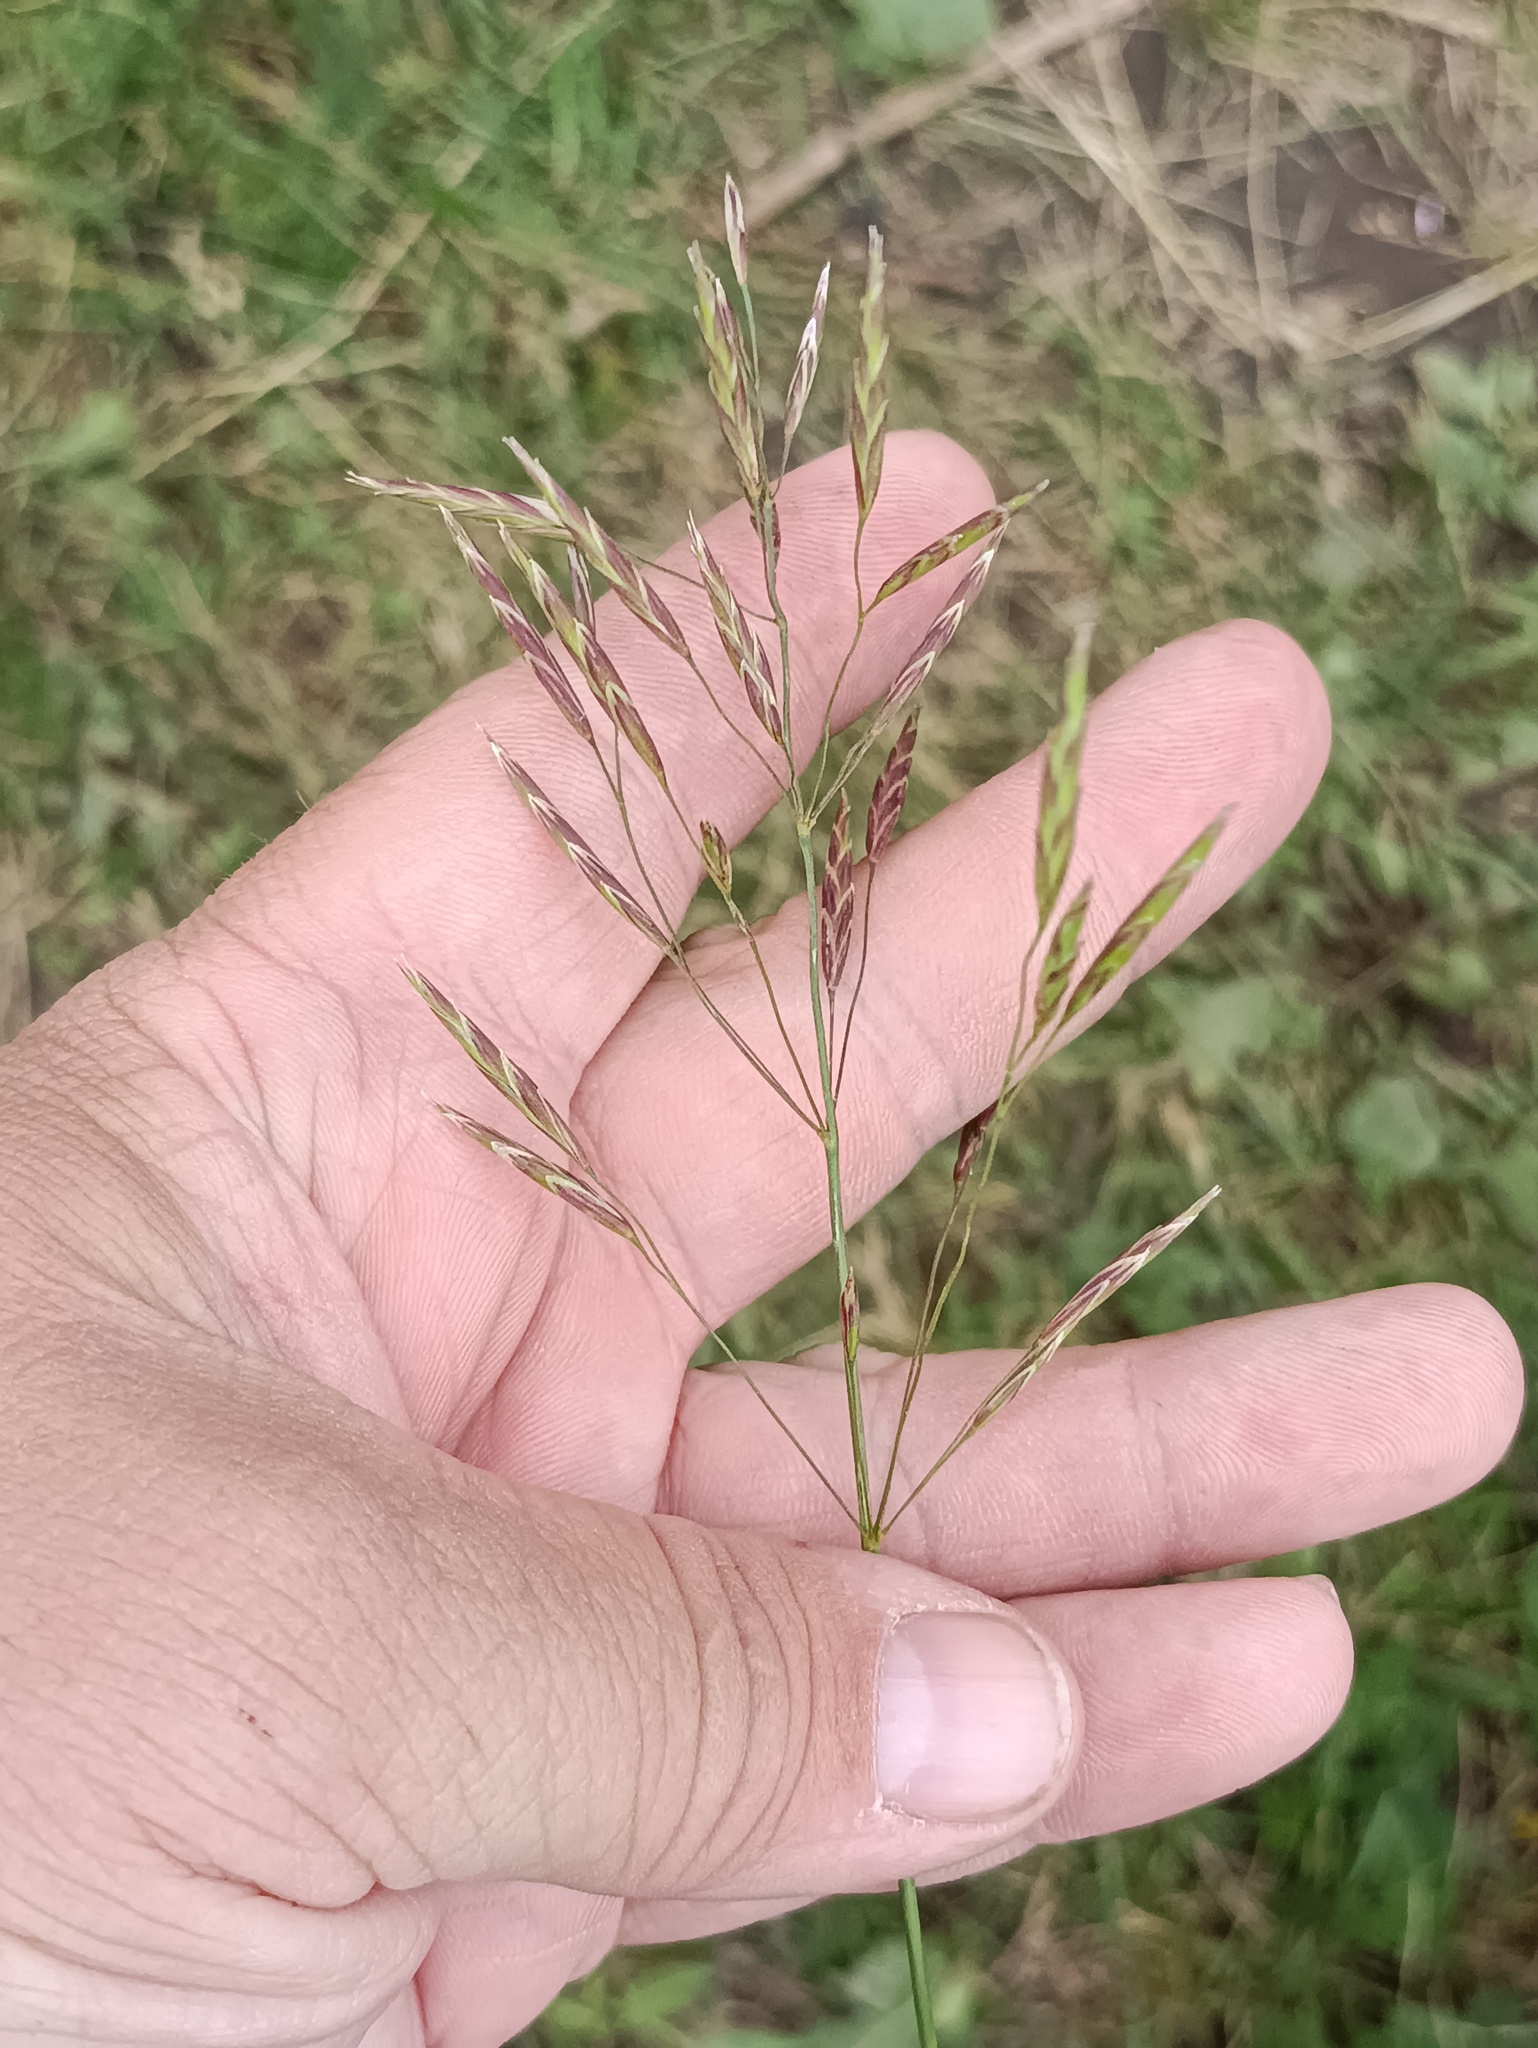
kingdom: Plantae
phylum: Tracheophyta
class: Liliopsida
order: Poales
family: Poaceae
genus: Bromus
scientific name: Bromus inermis
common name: Smooth brome
